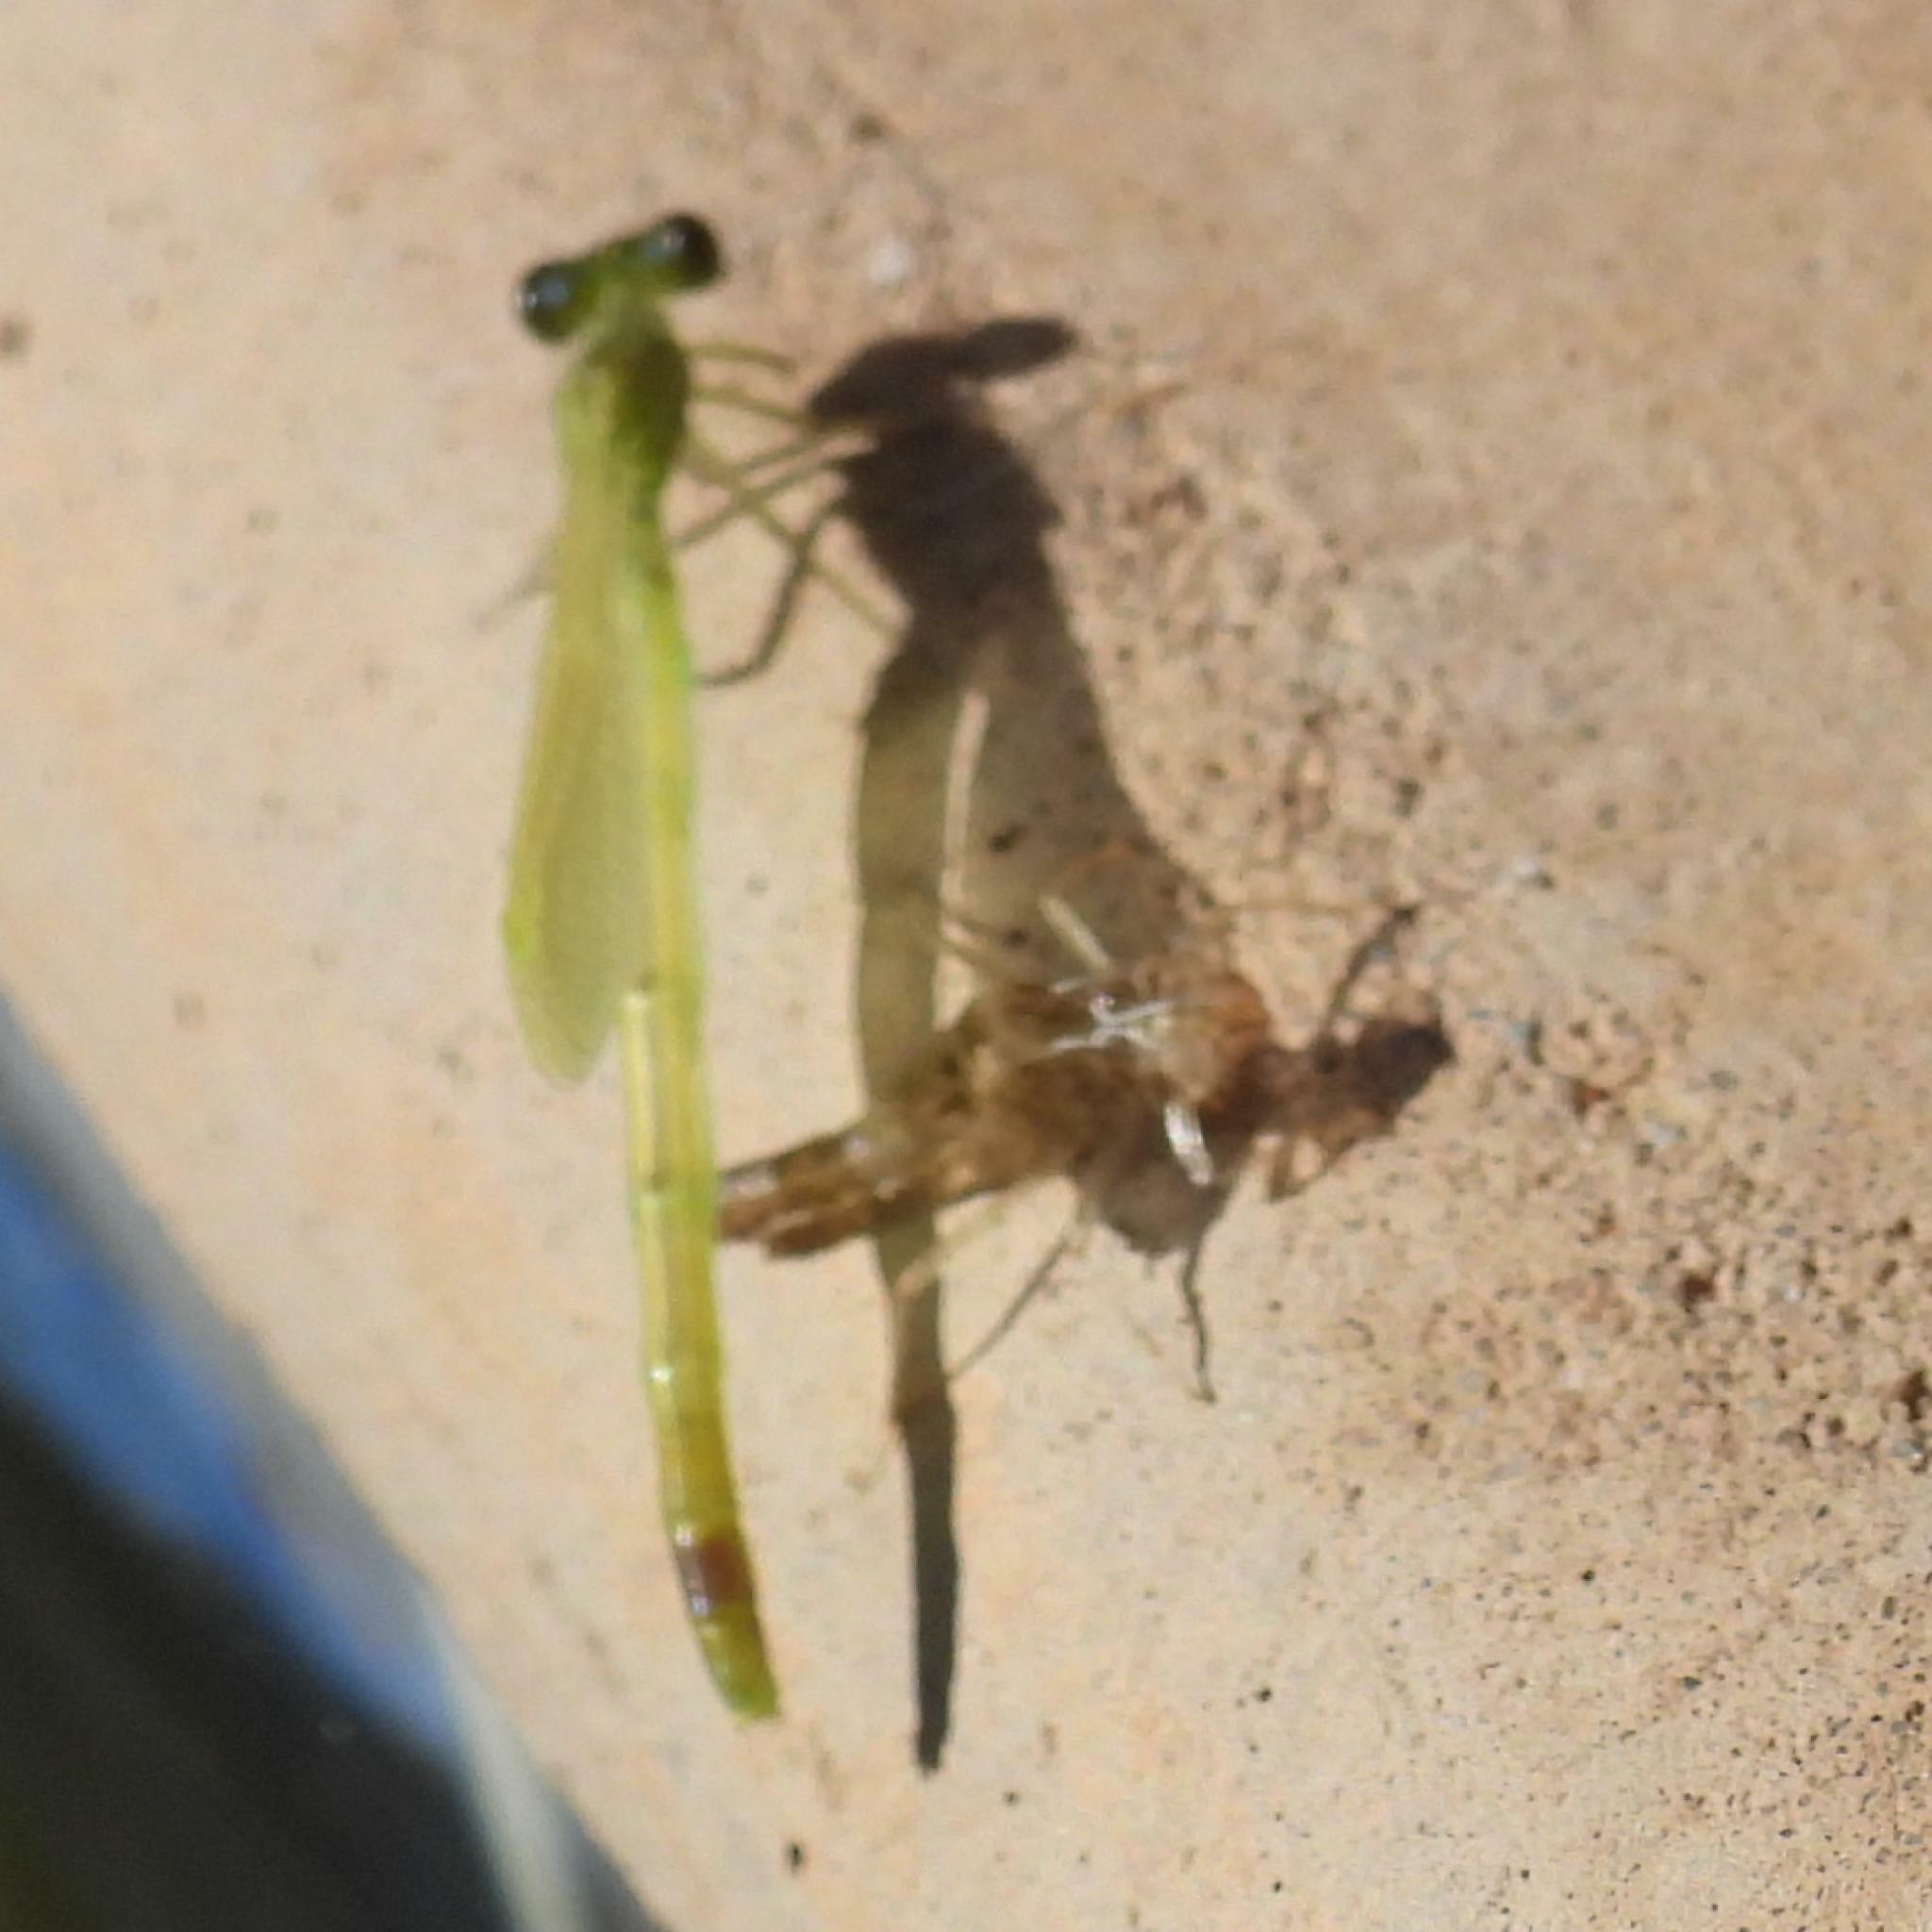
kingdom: Animalia
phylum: Arthropoda
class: Insecta
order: Odonata
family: Coenagrionidae
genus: Ischnura
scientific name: Ischnura senegalensis
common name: Tropical bluetail
